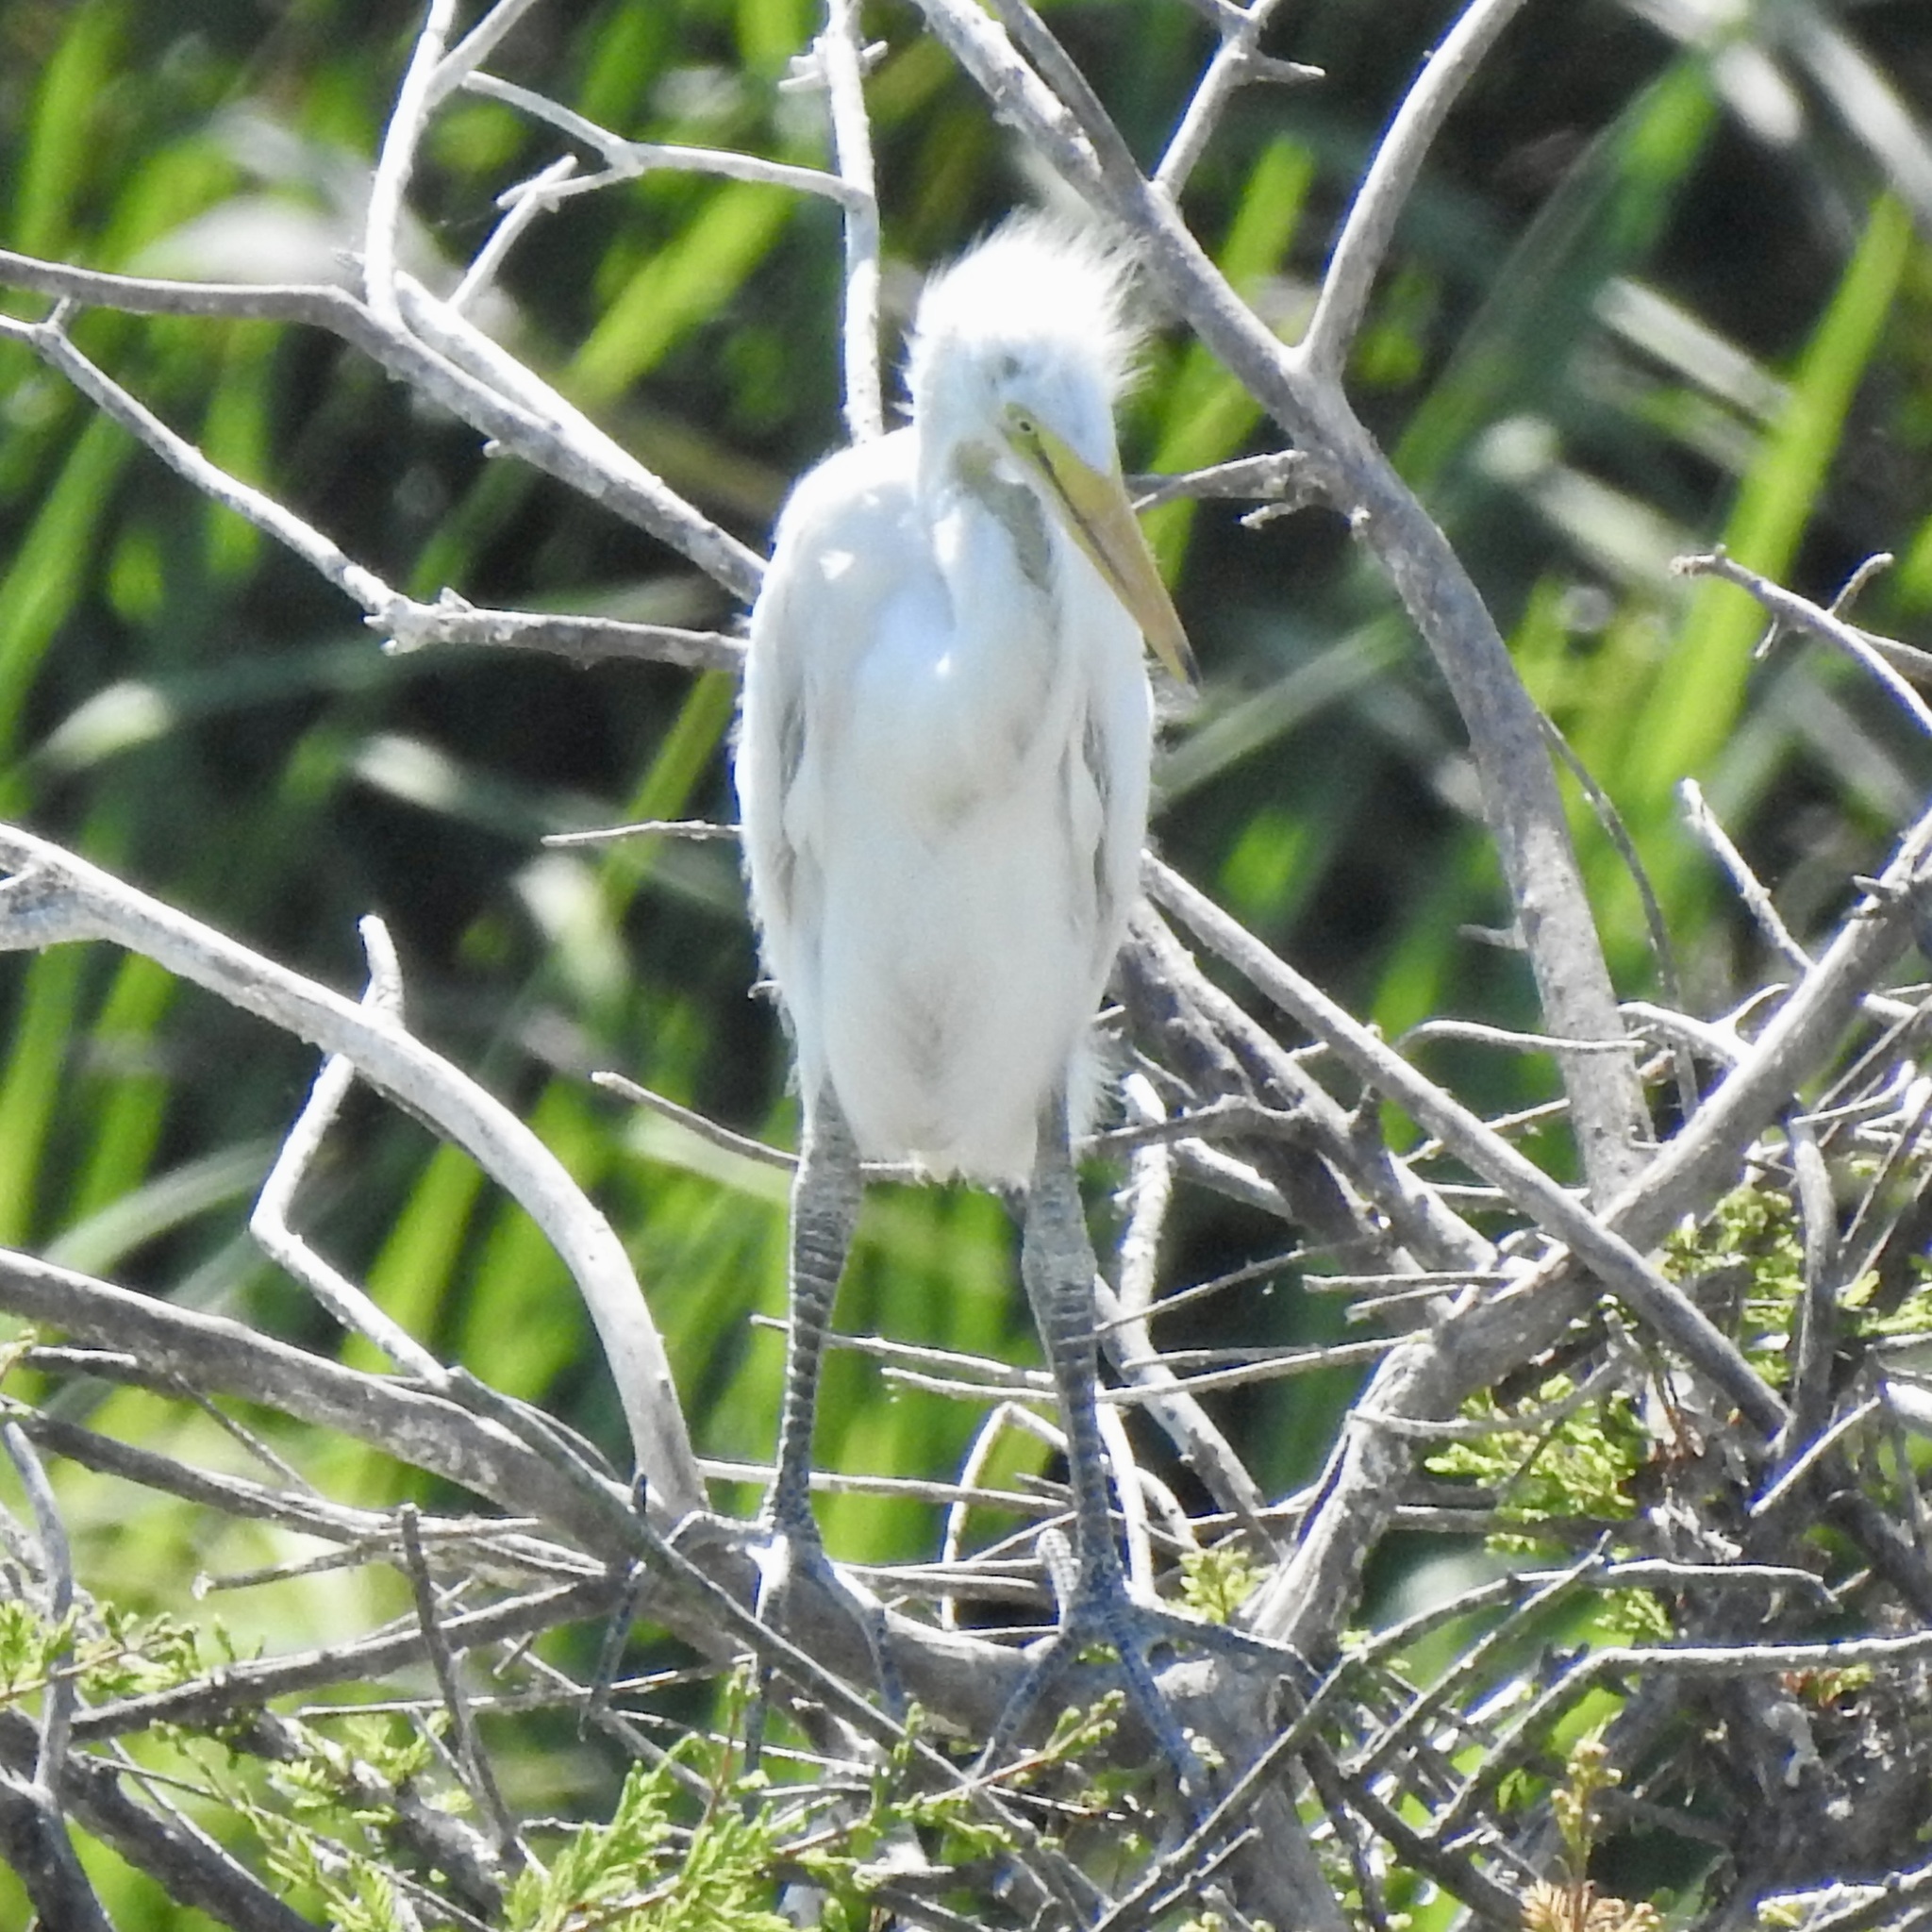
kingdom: Animalia
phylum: Chordata
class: Aves
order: Pelecaniformes
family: Ardeidae
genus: Ardea
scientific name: Ardea alba
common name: Great egret
